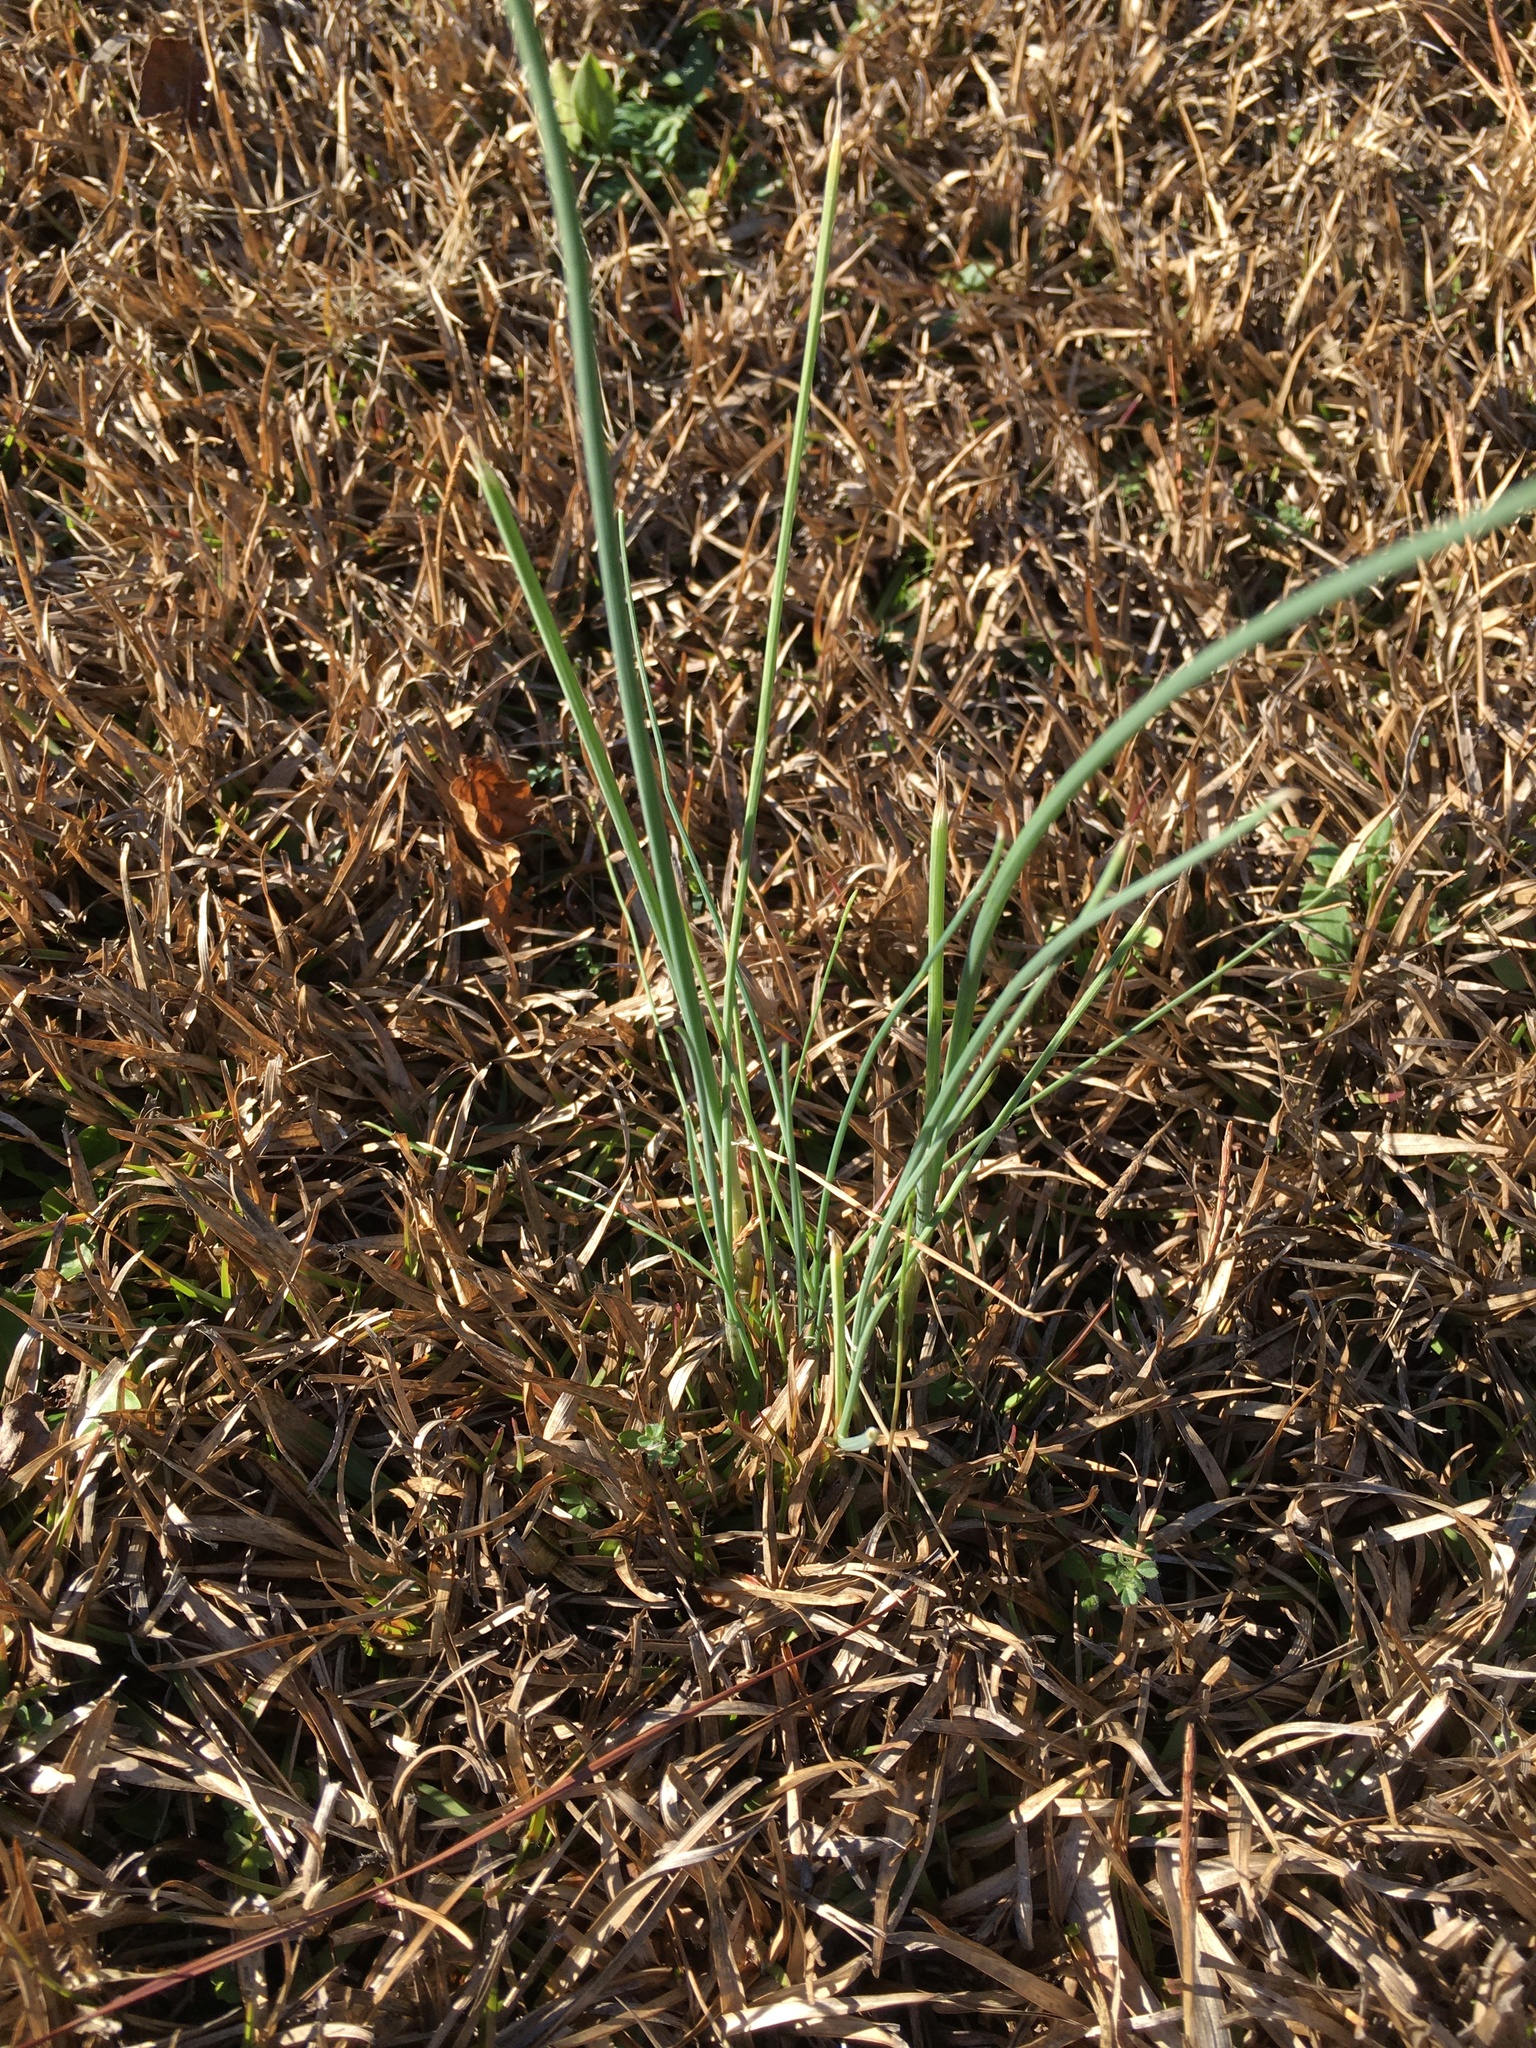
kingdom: Plantae
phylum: Tracheophyta
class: Liliopsida
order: Asparagales
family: Amaryllidaceae
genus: Allium
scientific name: Allium vineale
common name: Crow garlic
